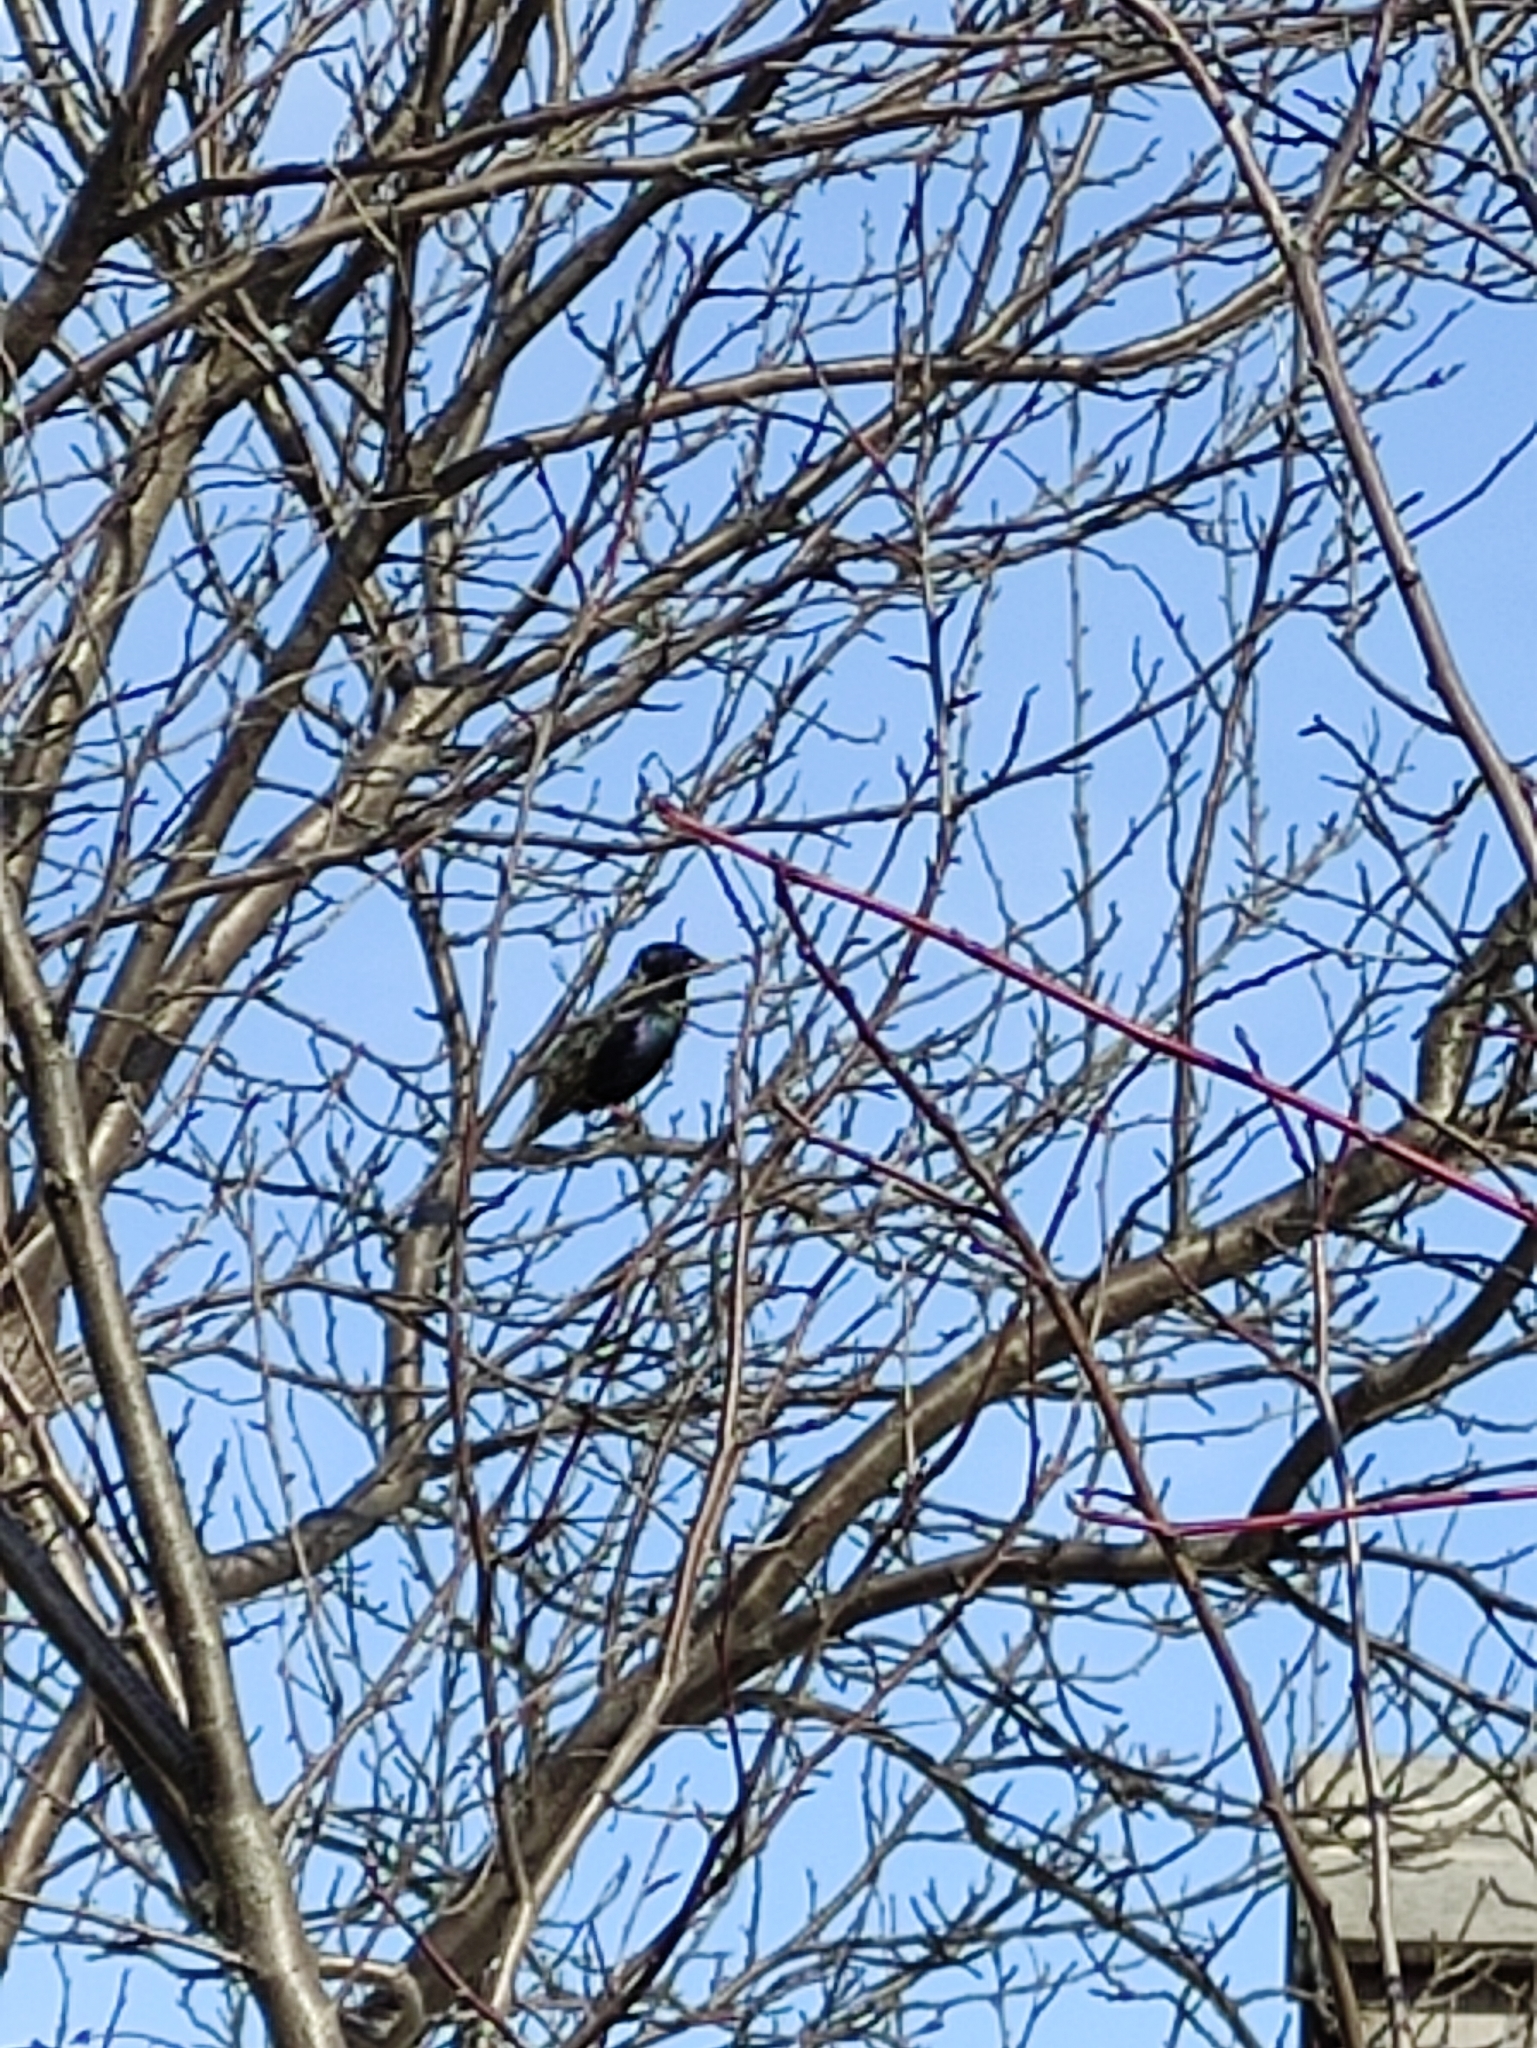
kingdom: Animalia
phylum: Chordata
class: Aves
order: Passeriformes
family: Sturnidae
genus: Sturnus
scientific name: Sturnus vulgaris
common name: Common starling
